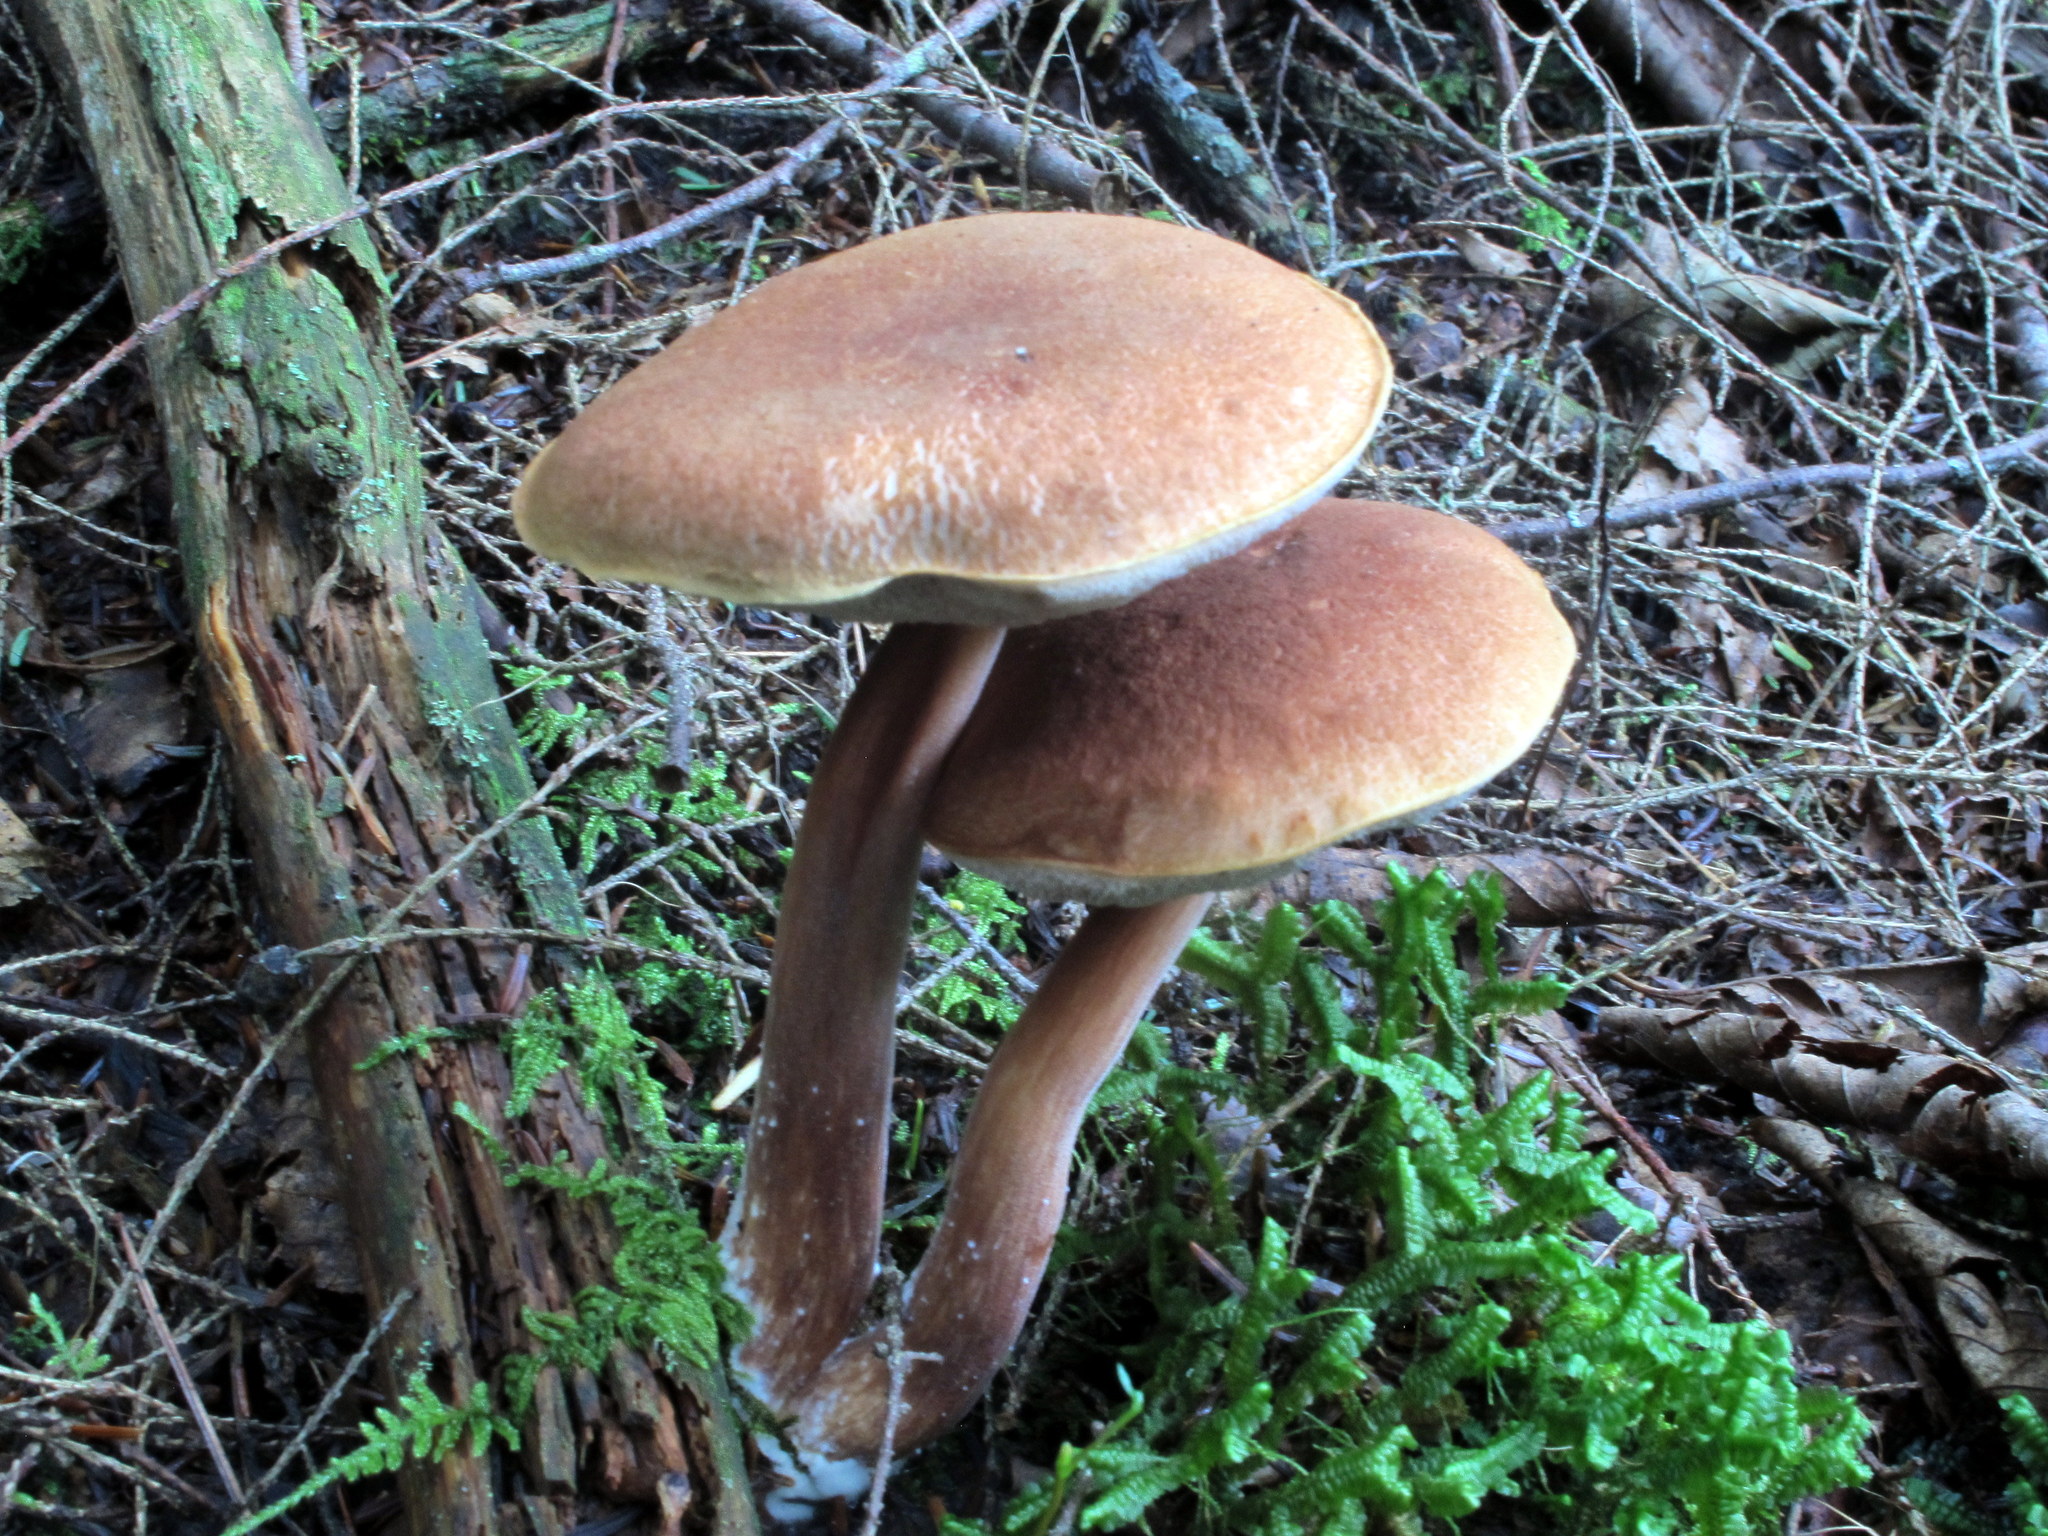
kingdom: Fungi
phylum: Basidiomycota
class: Agaricomycetes
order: Boletales
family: Boletaceae
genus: Austroboletus
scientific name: Austroboletus gracilis
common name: Graceful bolete
